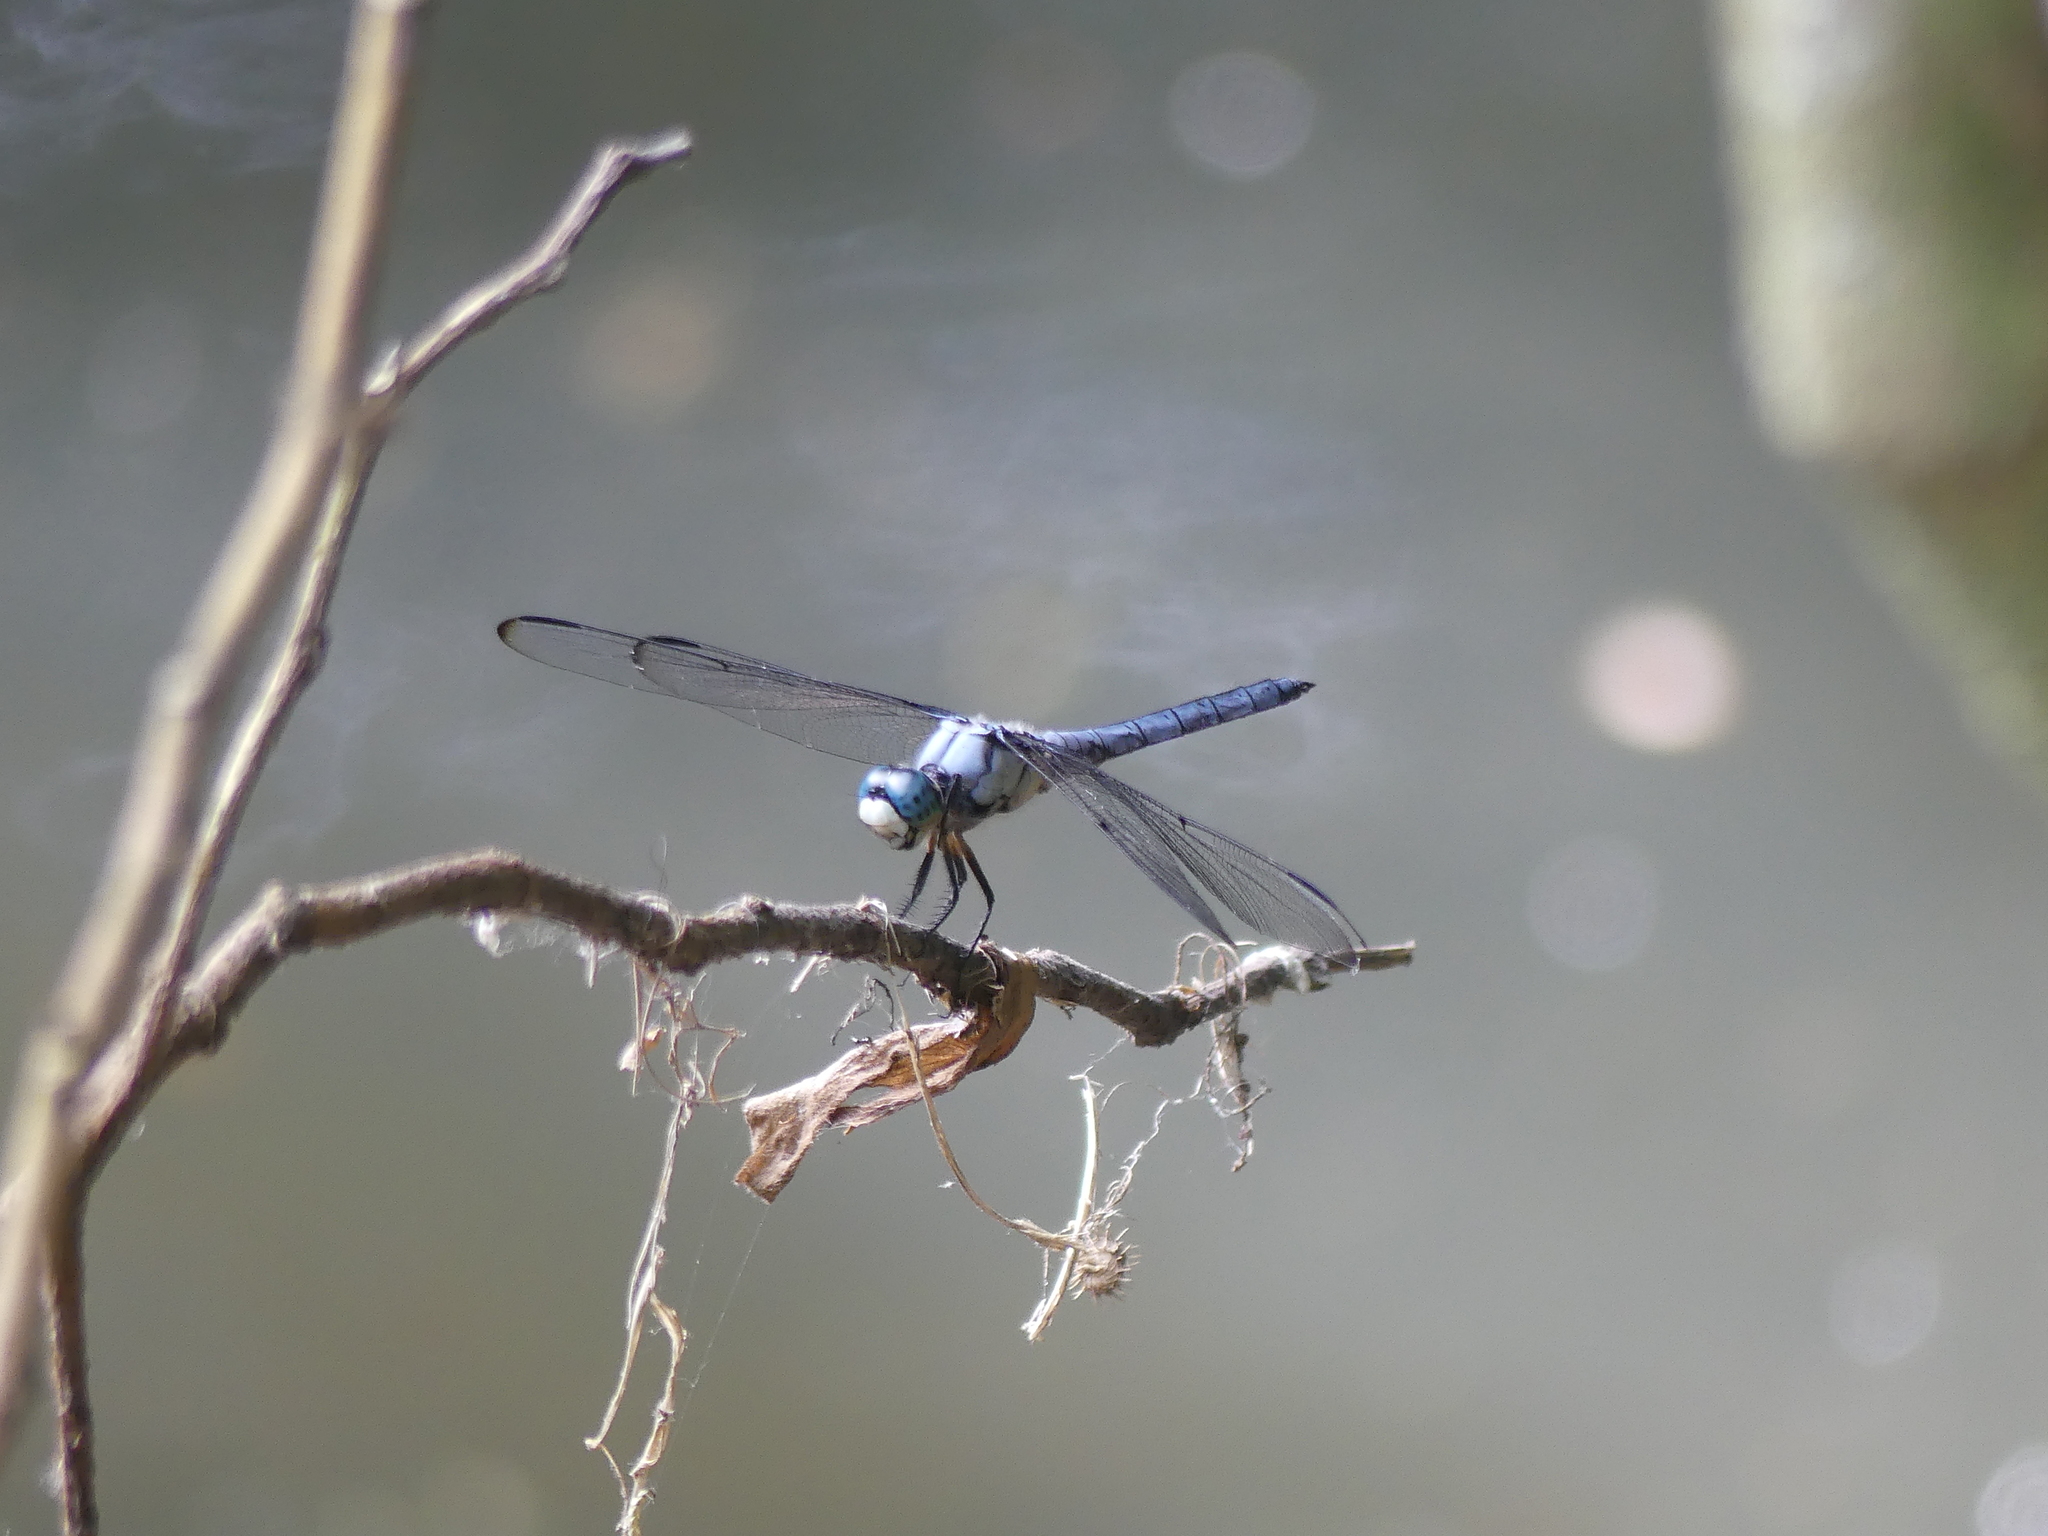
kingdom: Animalia
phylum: Arthropoda
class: Insecta
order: Odonata
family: Libellulidae
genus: Libellula
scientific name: Libellula vibrans
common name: Great blue skimmer
